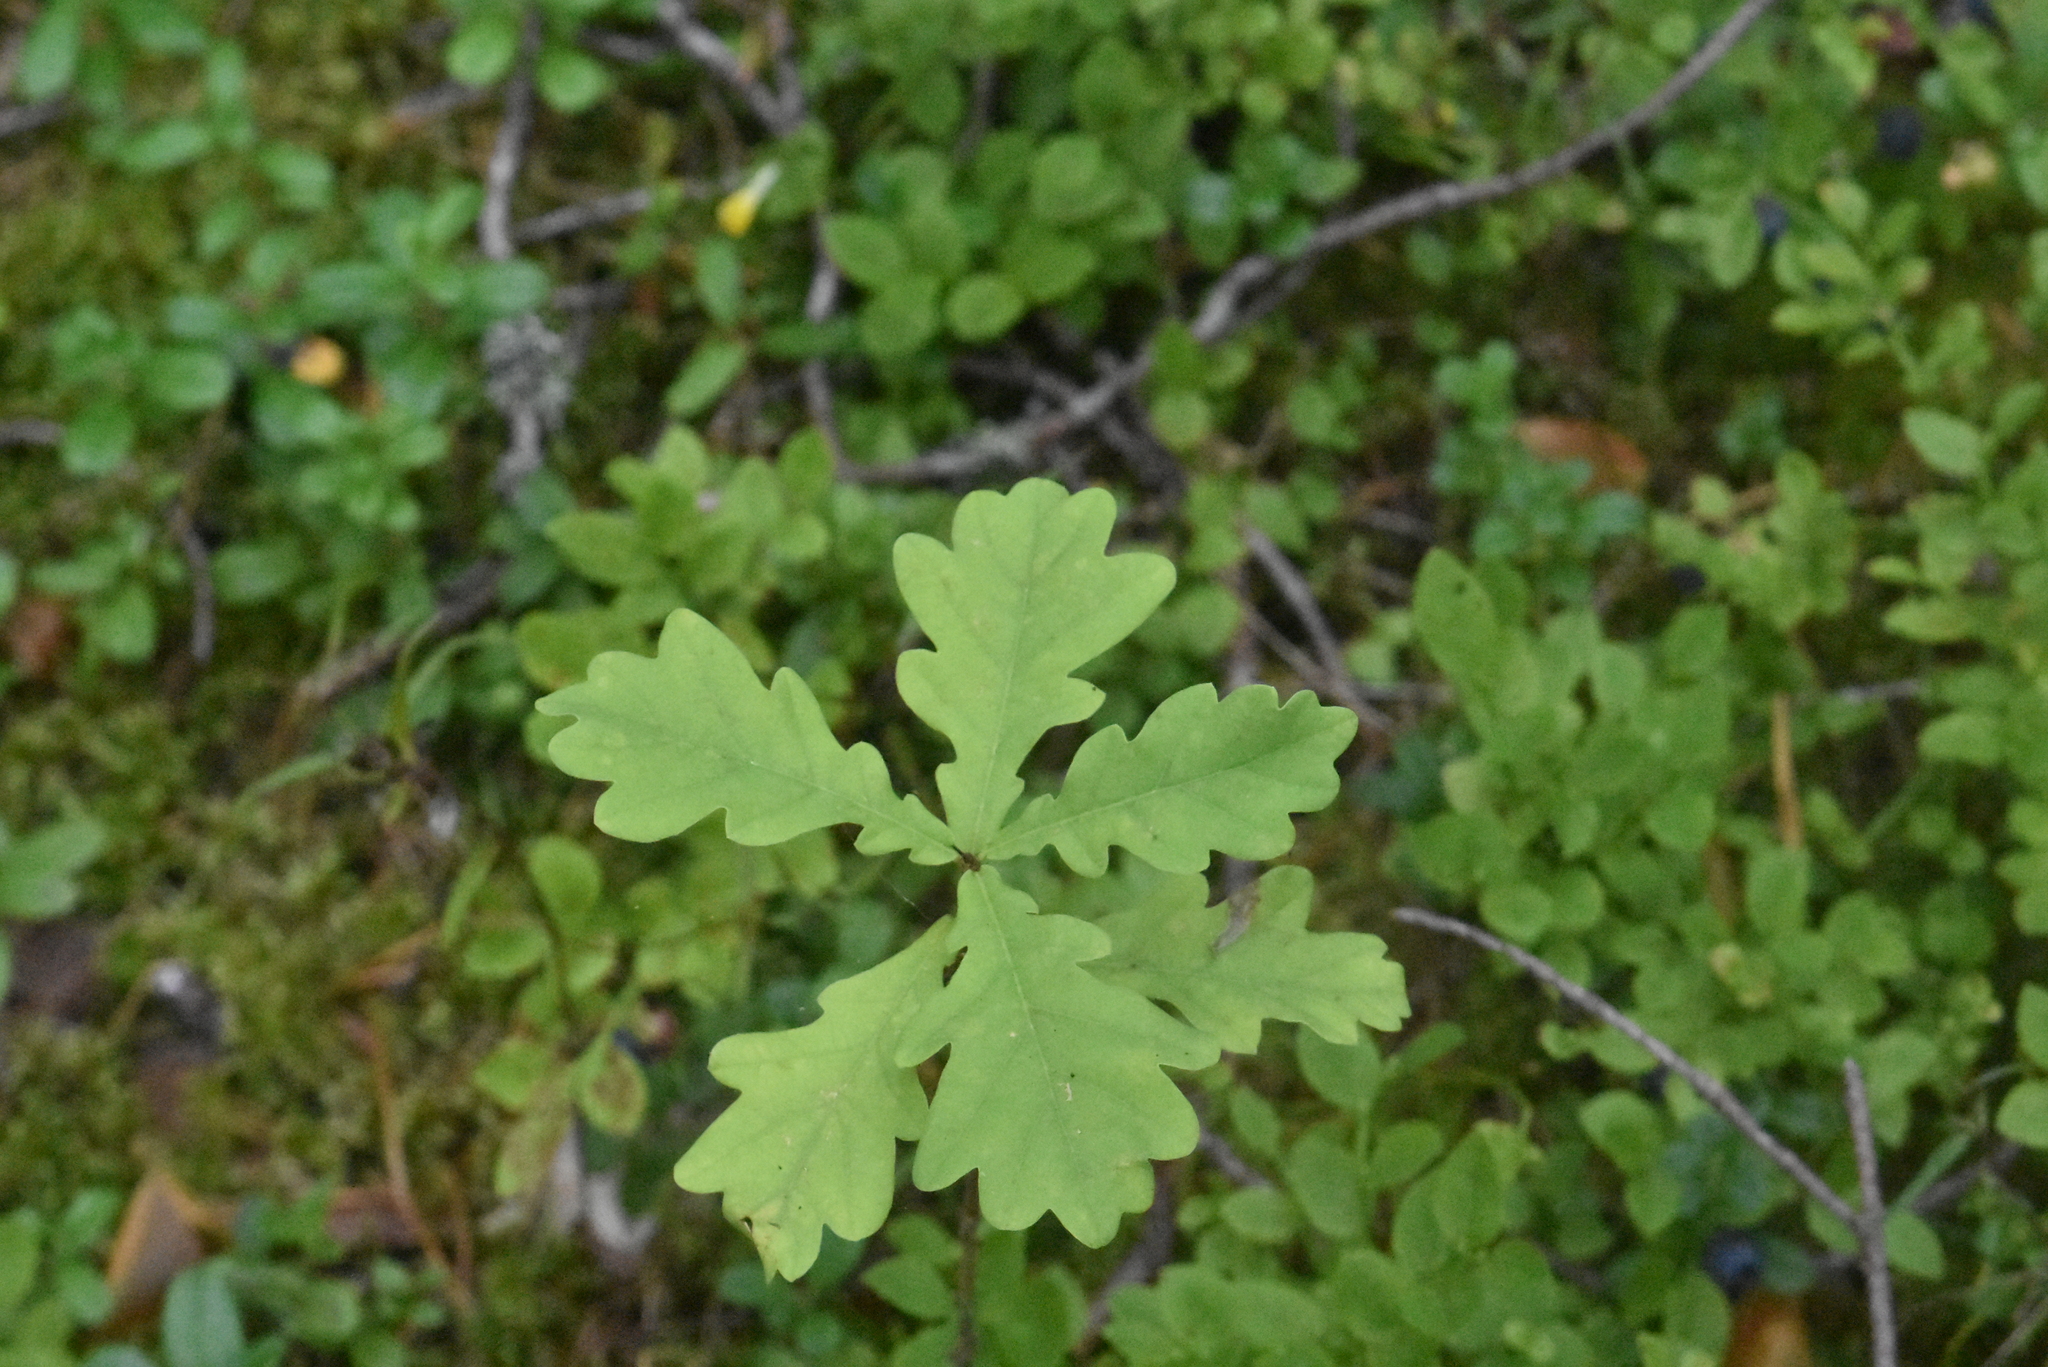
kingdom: Plantae
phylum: Tracheophyta
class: Magnoliopsida
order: Fagales
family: Fagaceae
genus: Quercus
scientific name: Quercus robur
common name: Pedunculate oak
